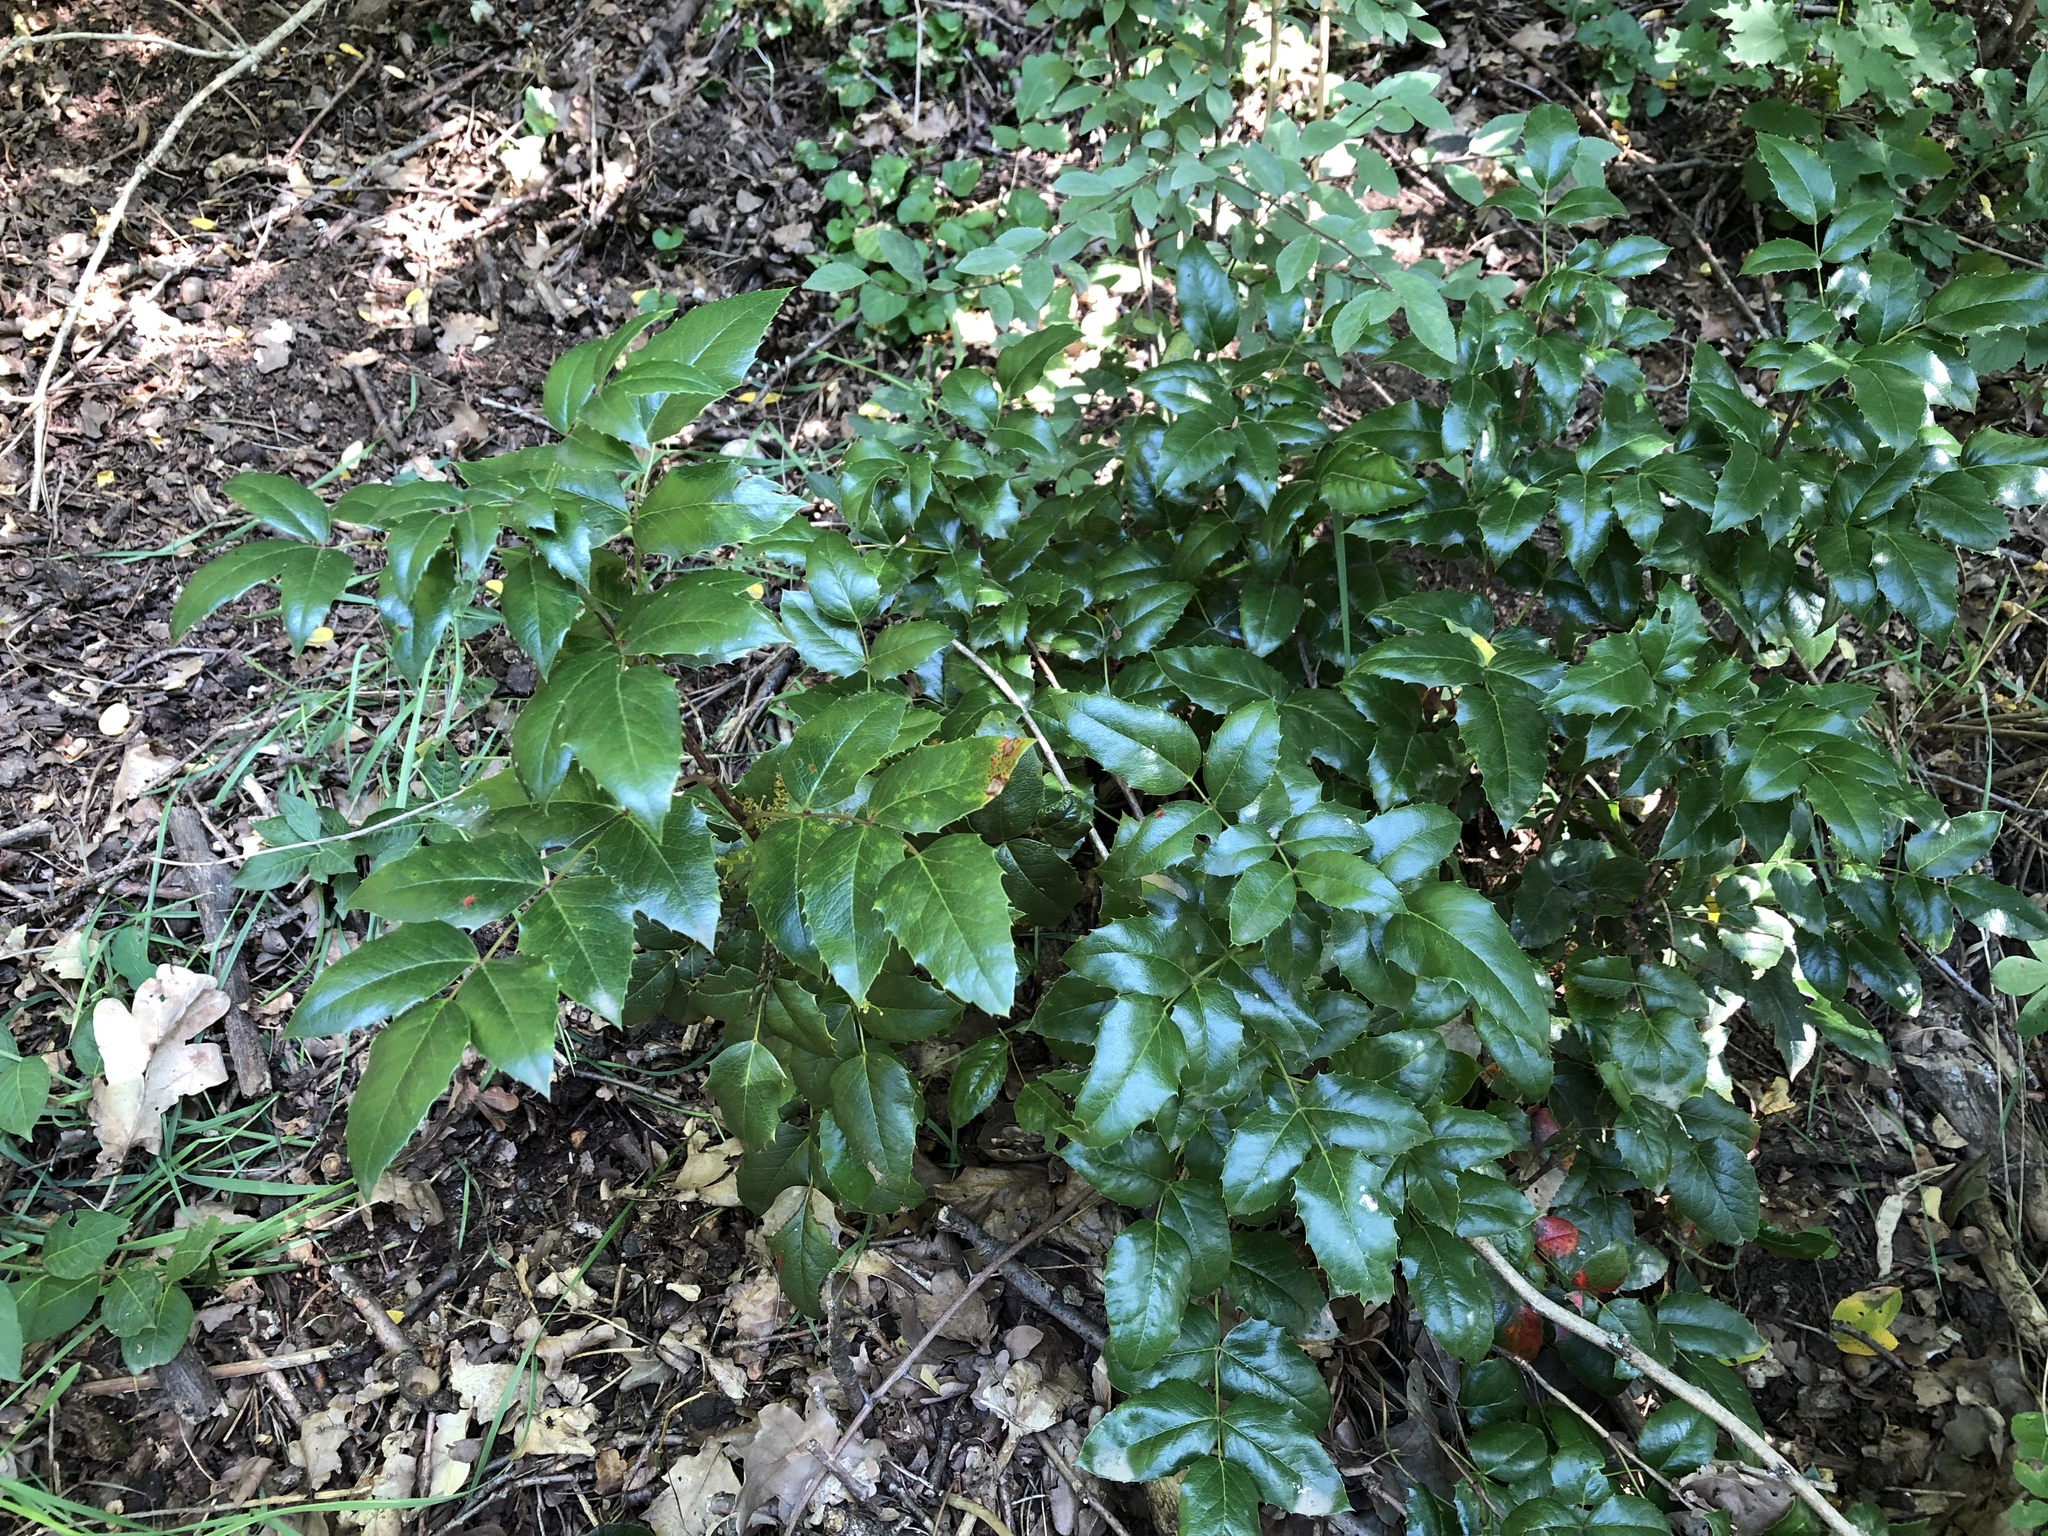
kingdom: Plantae
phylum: Tracheophyta
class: Magnoliopsida
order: Ranunculales
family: Berberidaceae
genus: Mahonia
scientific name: Mahonia aquifolium
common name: Oregon-grape
